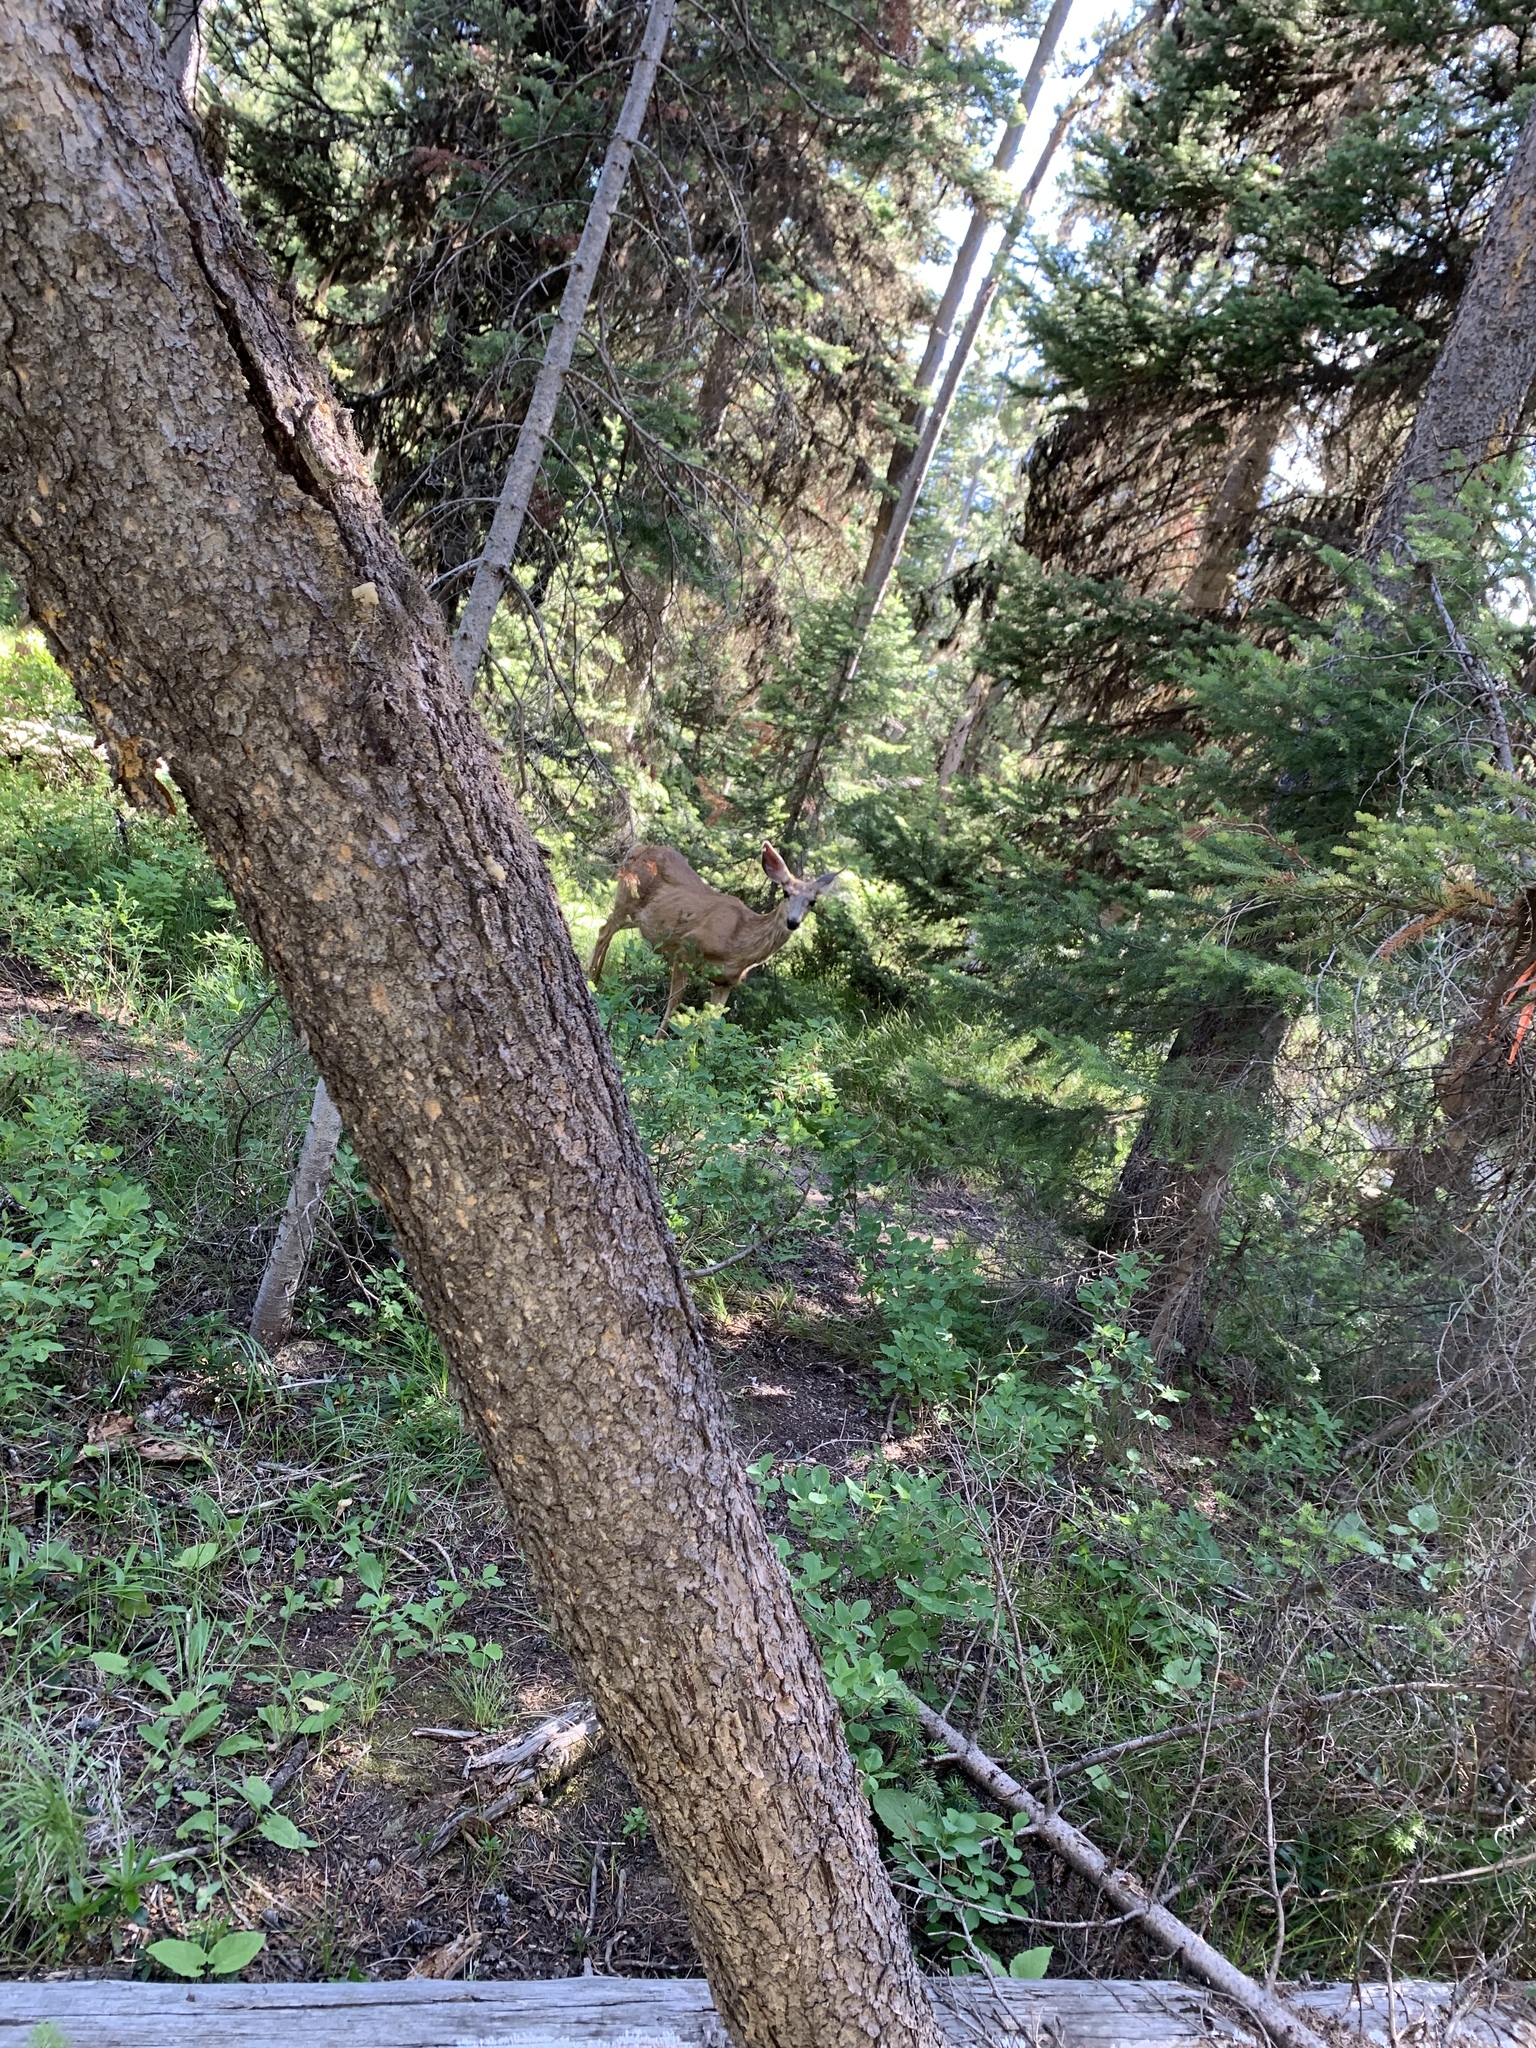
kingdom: Animalia
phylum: Chordata
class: Mammalia
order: Artiodactyla
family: Cervidae
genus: Odocoileus
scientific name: Odocoileus hemionus
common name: Mule deer
